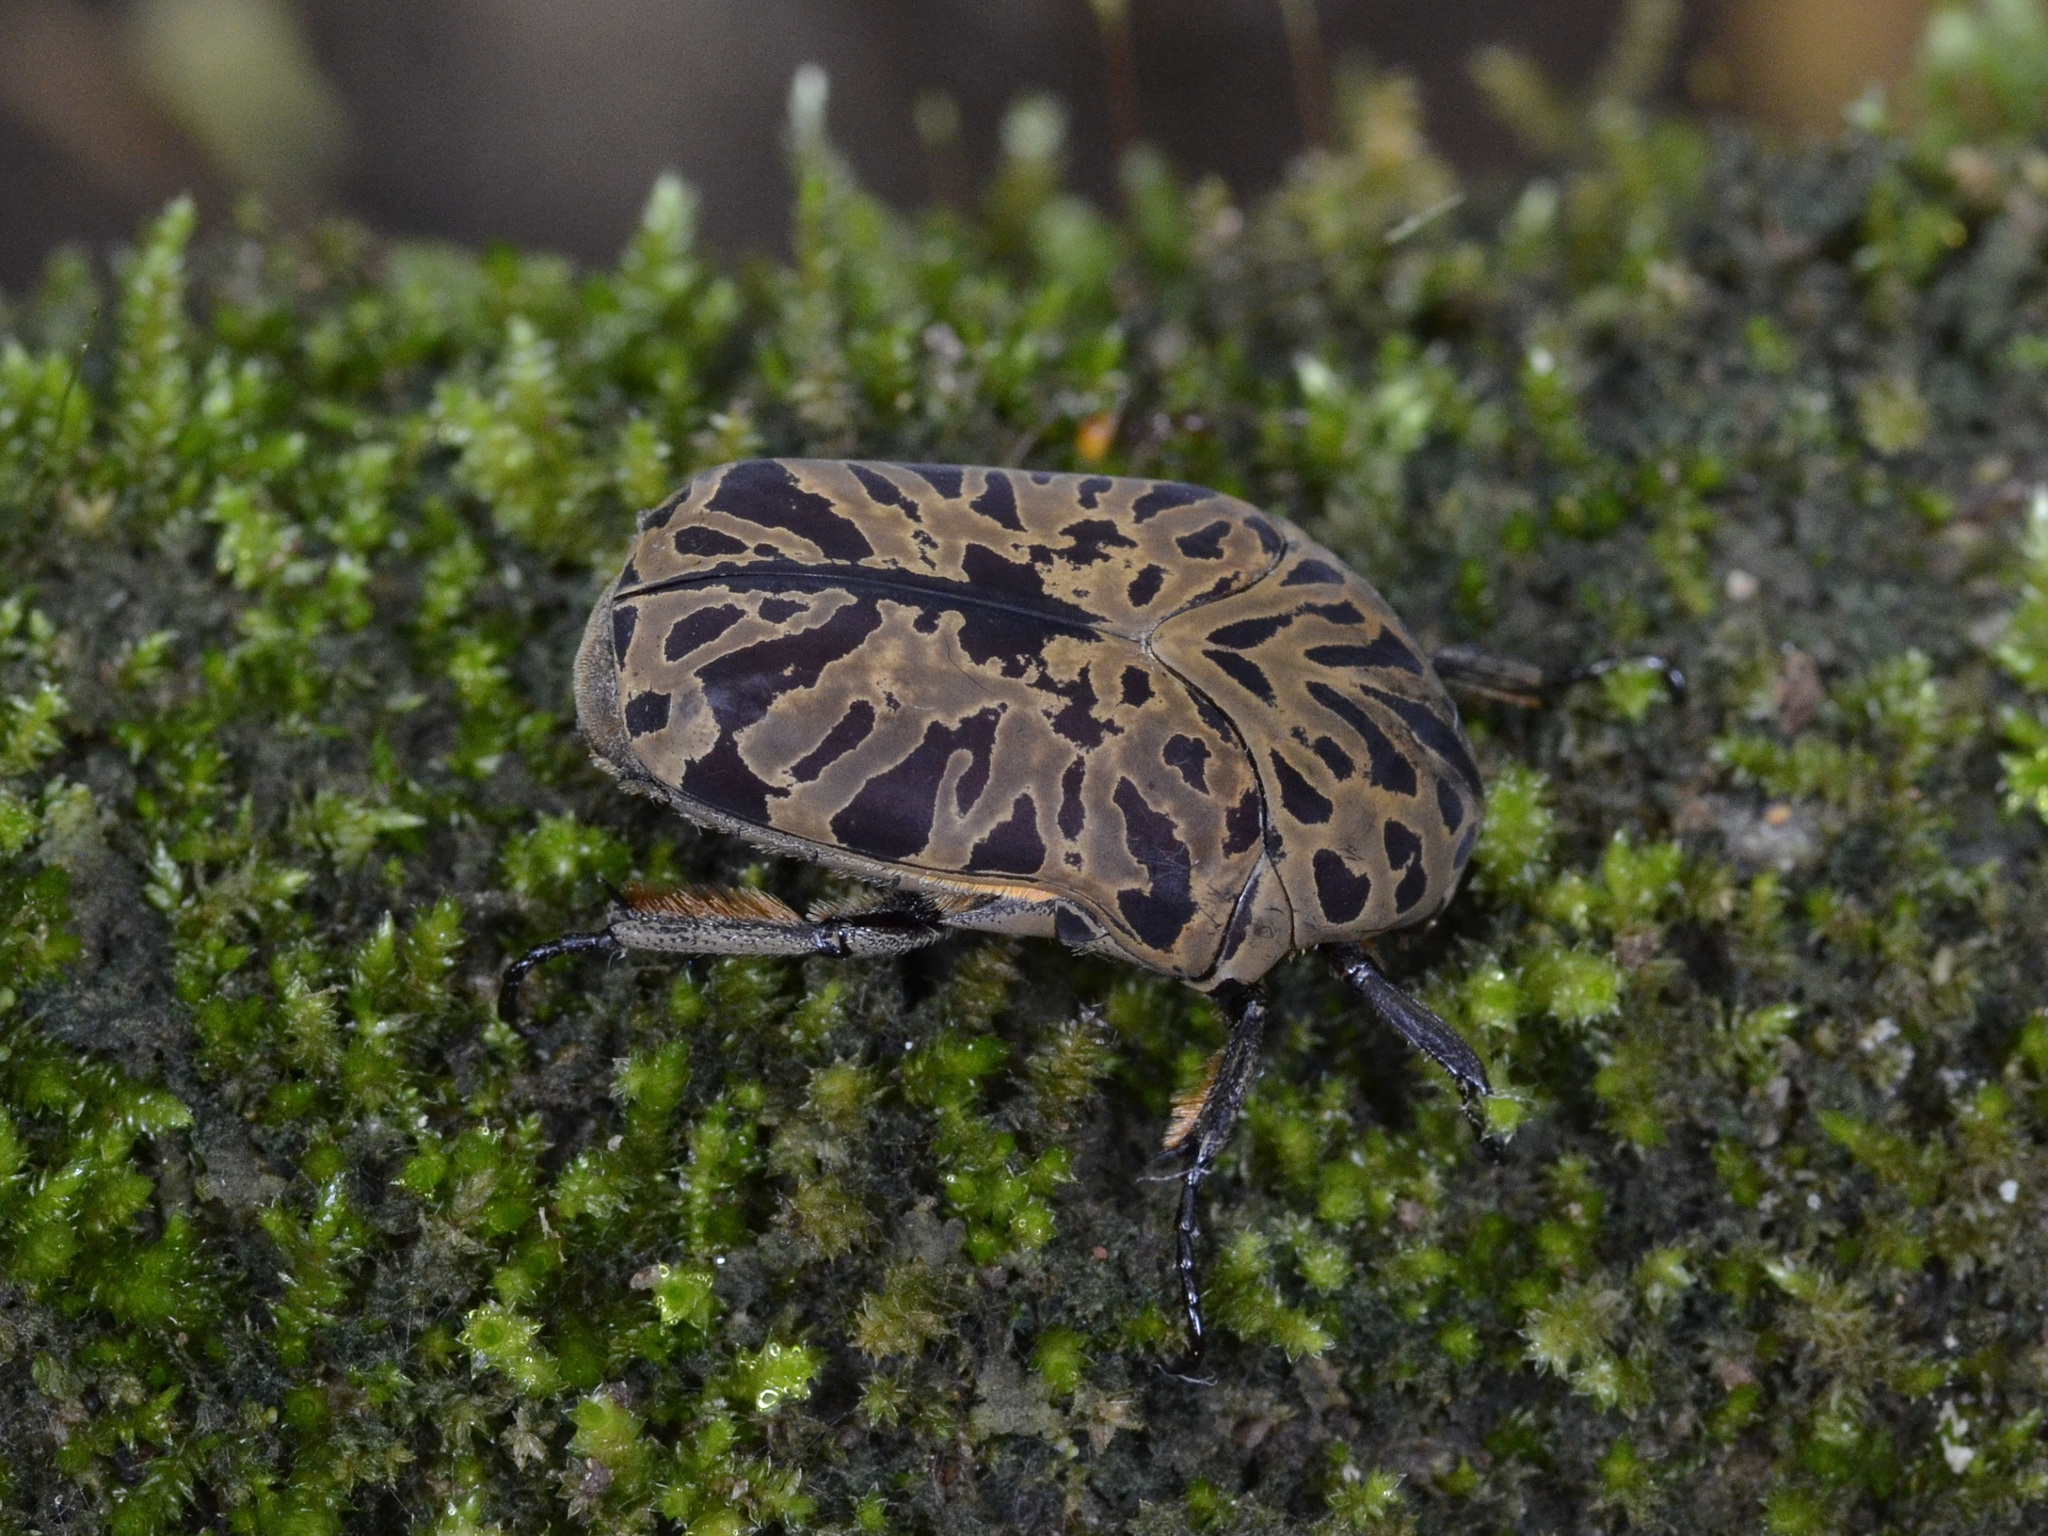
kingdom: Animalia
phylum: Arthropoda
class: Insecta
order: Coleoptera
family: Scarabaeidae
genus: Gymnetis
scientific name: Gymnetis pantherina
